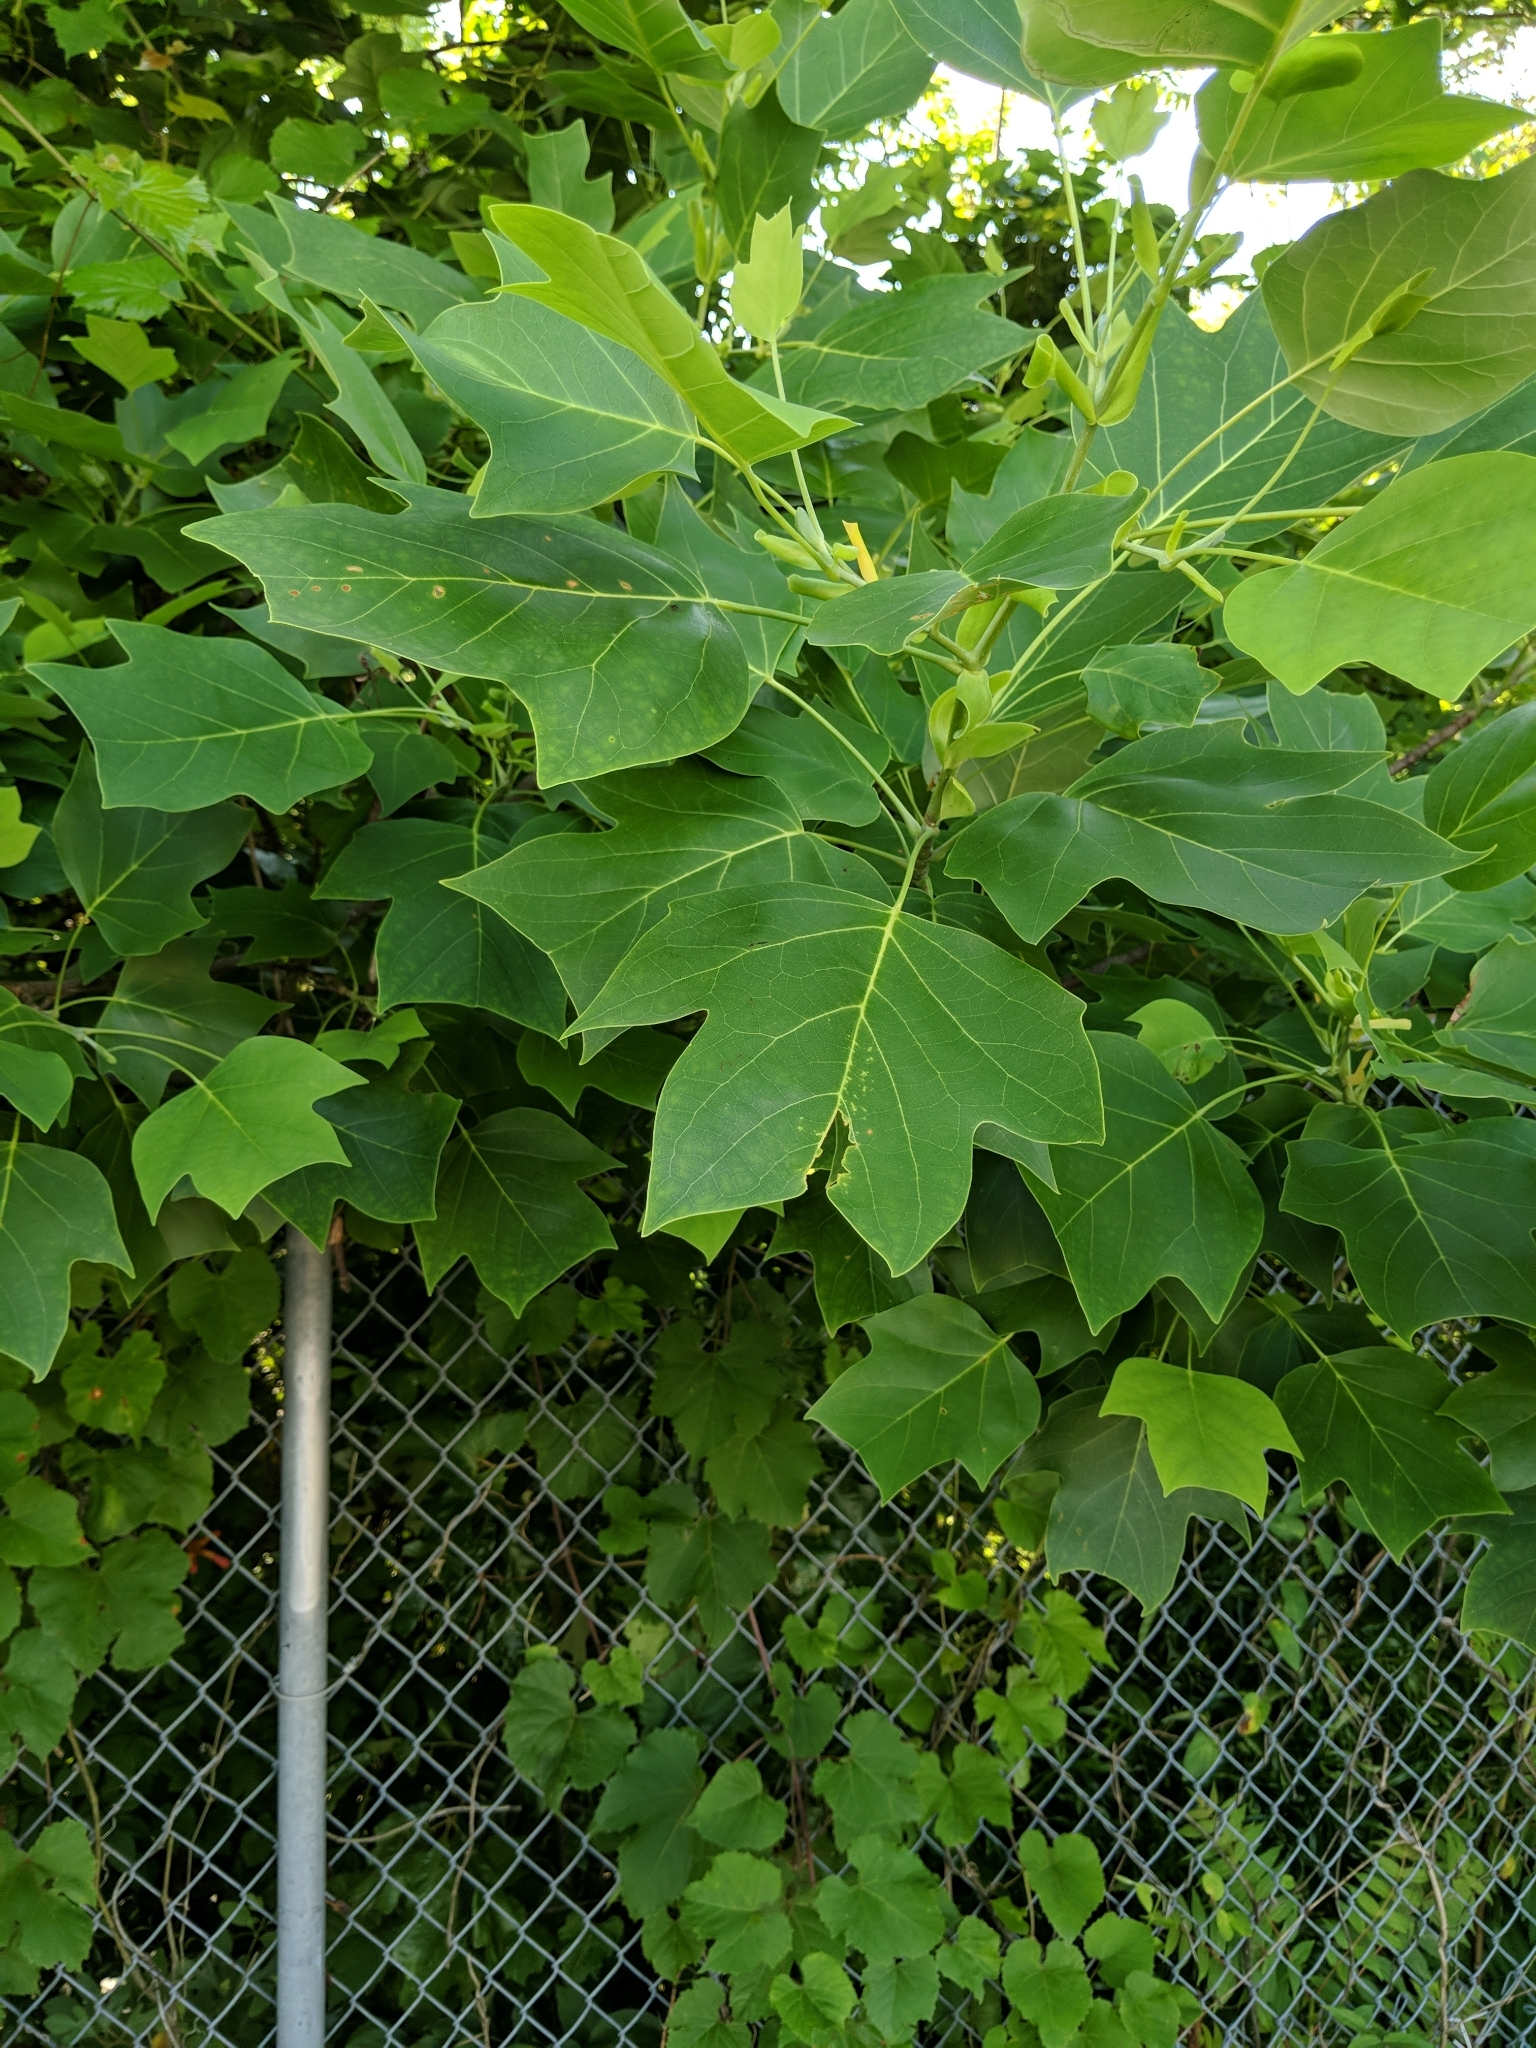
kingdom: Plantae
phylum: Tracheophyta
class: Magnoliopsida
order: Magnoliales
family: Magnoliaceae
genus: Liriodendron
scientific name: Liriodendron tulipifera
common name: Tulip tree
